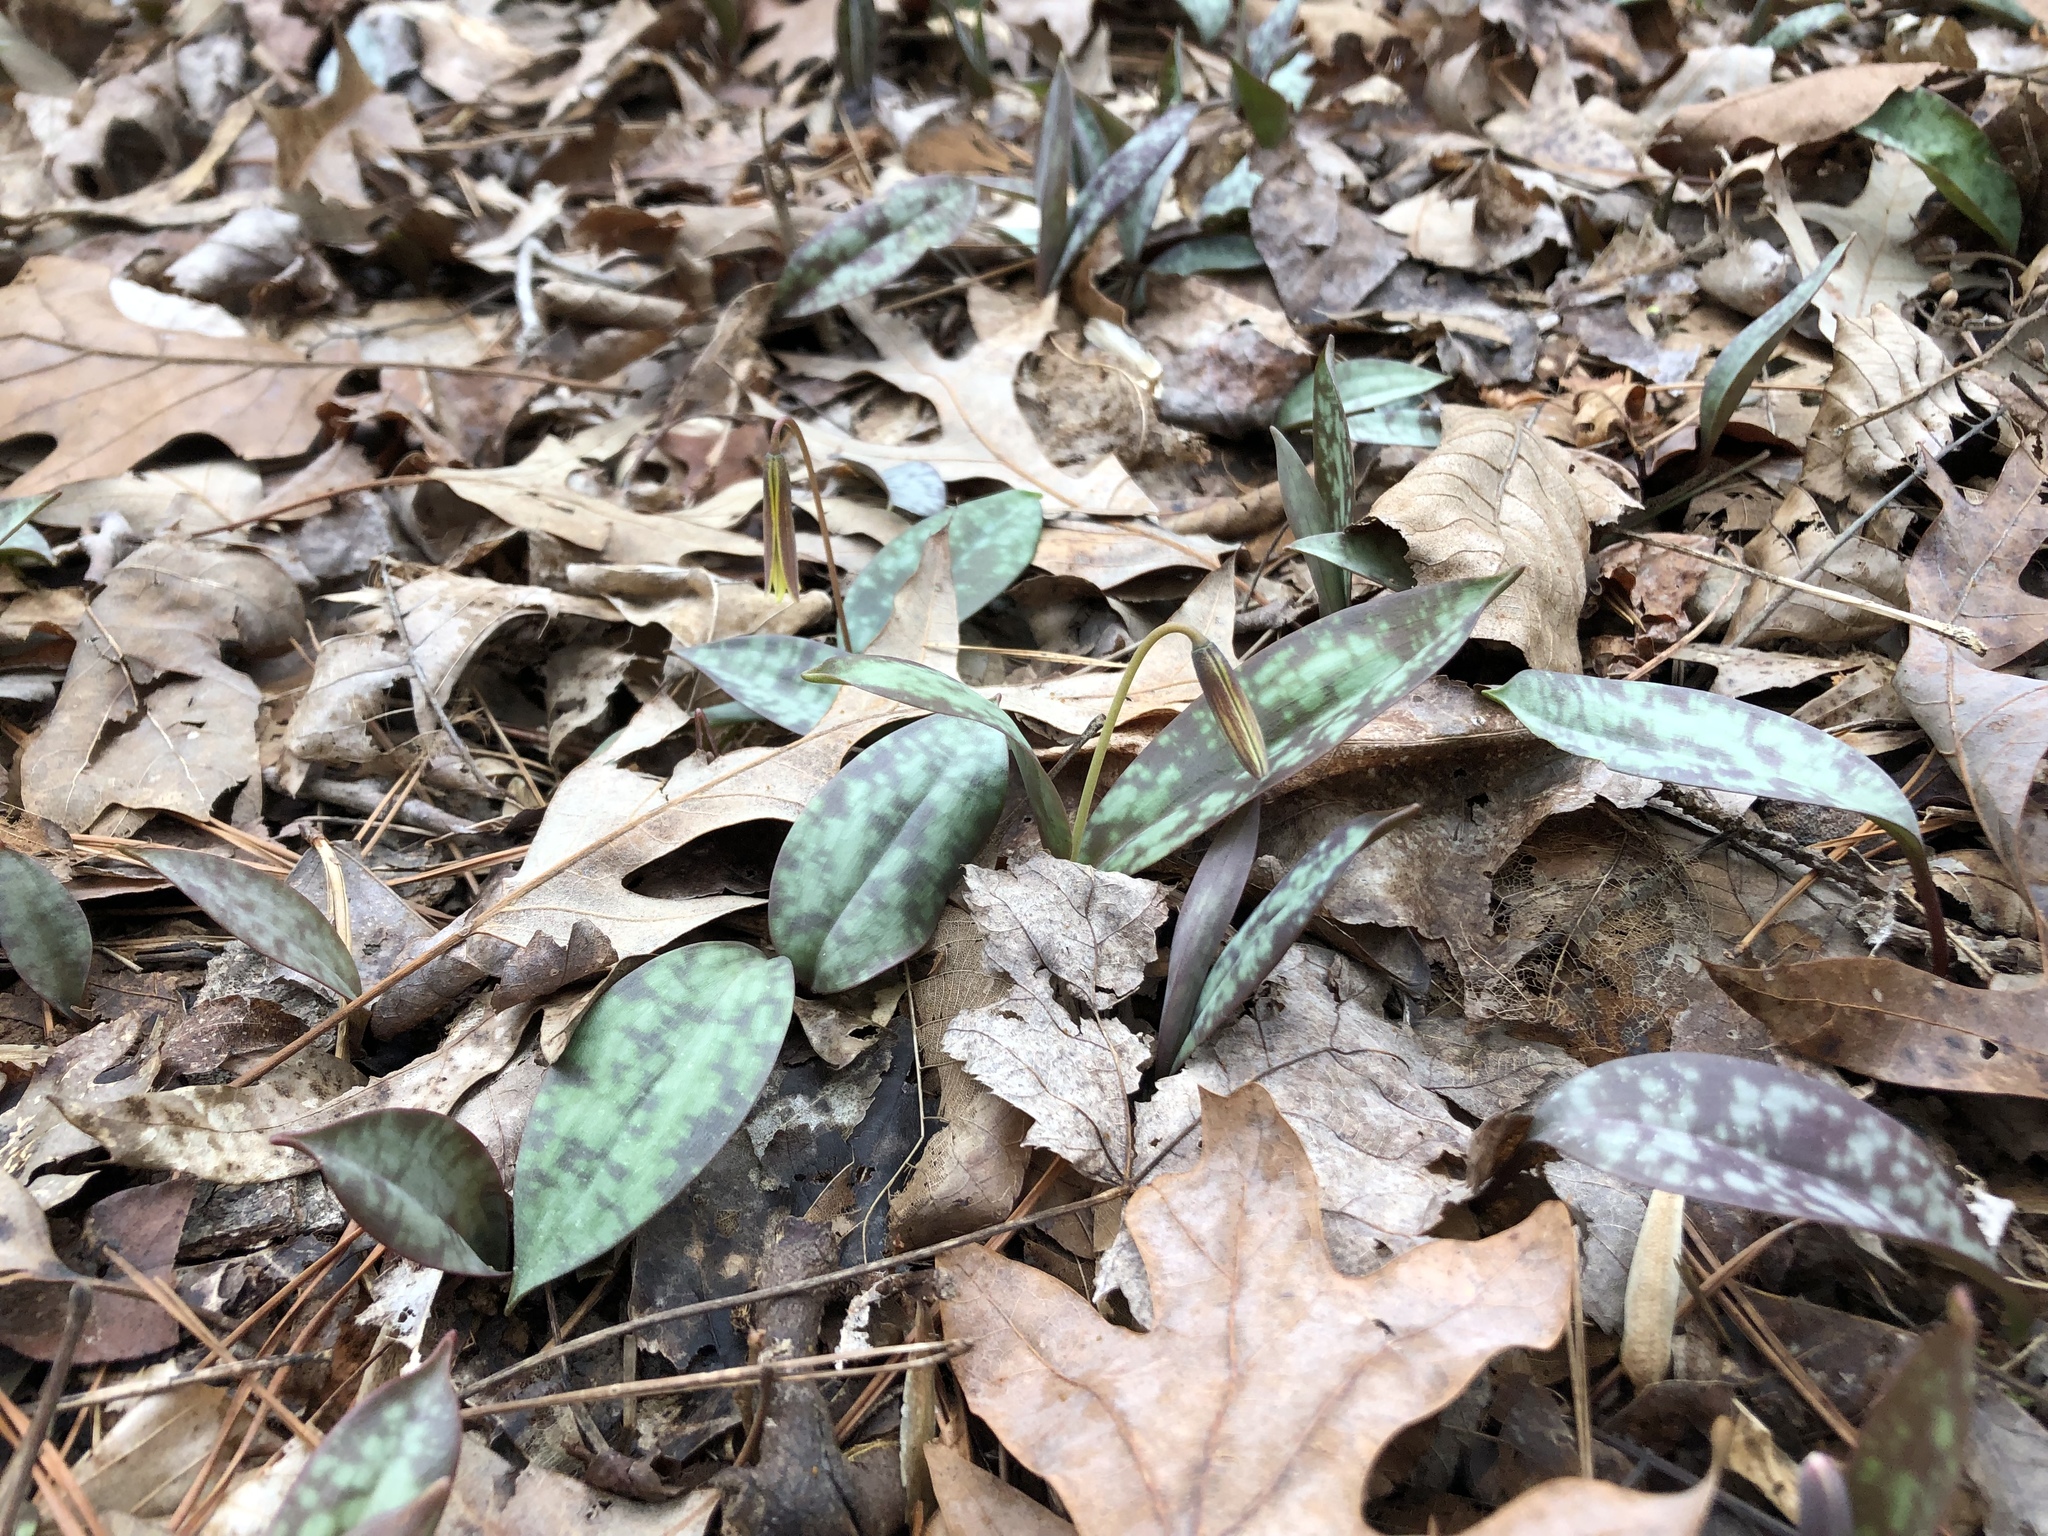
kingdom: Plantae
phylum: Tracheophyta
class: Liliopsida
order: Liliales
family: Liliaceae
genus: Erythronium
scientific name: Erythronium umbilicatum
